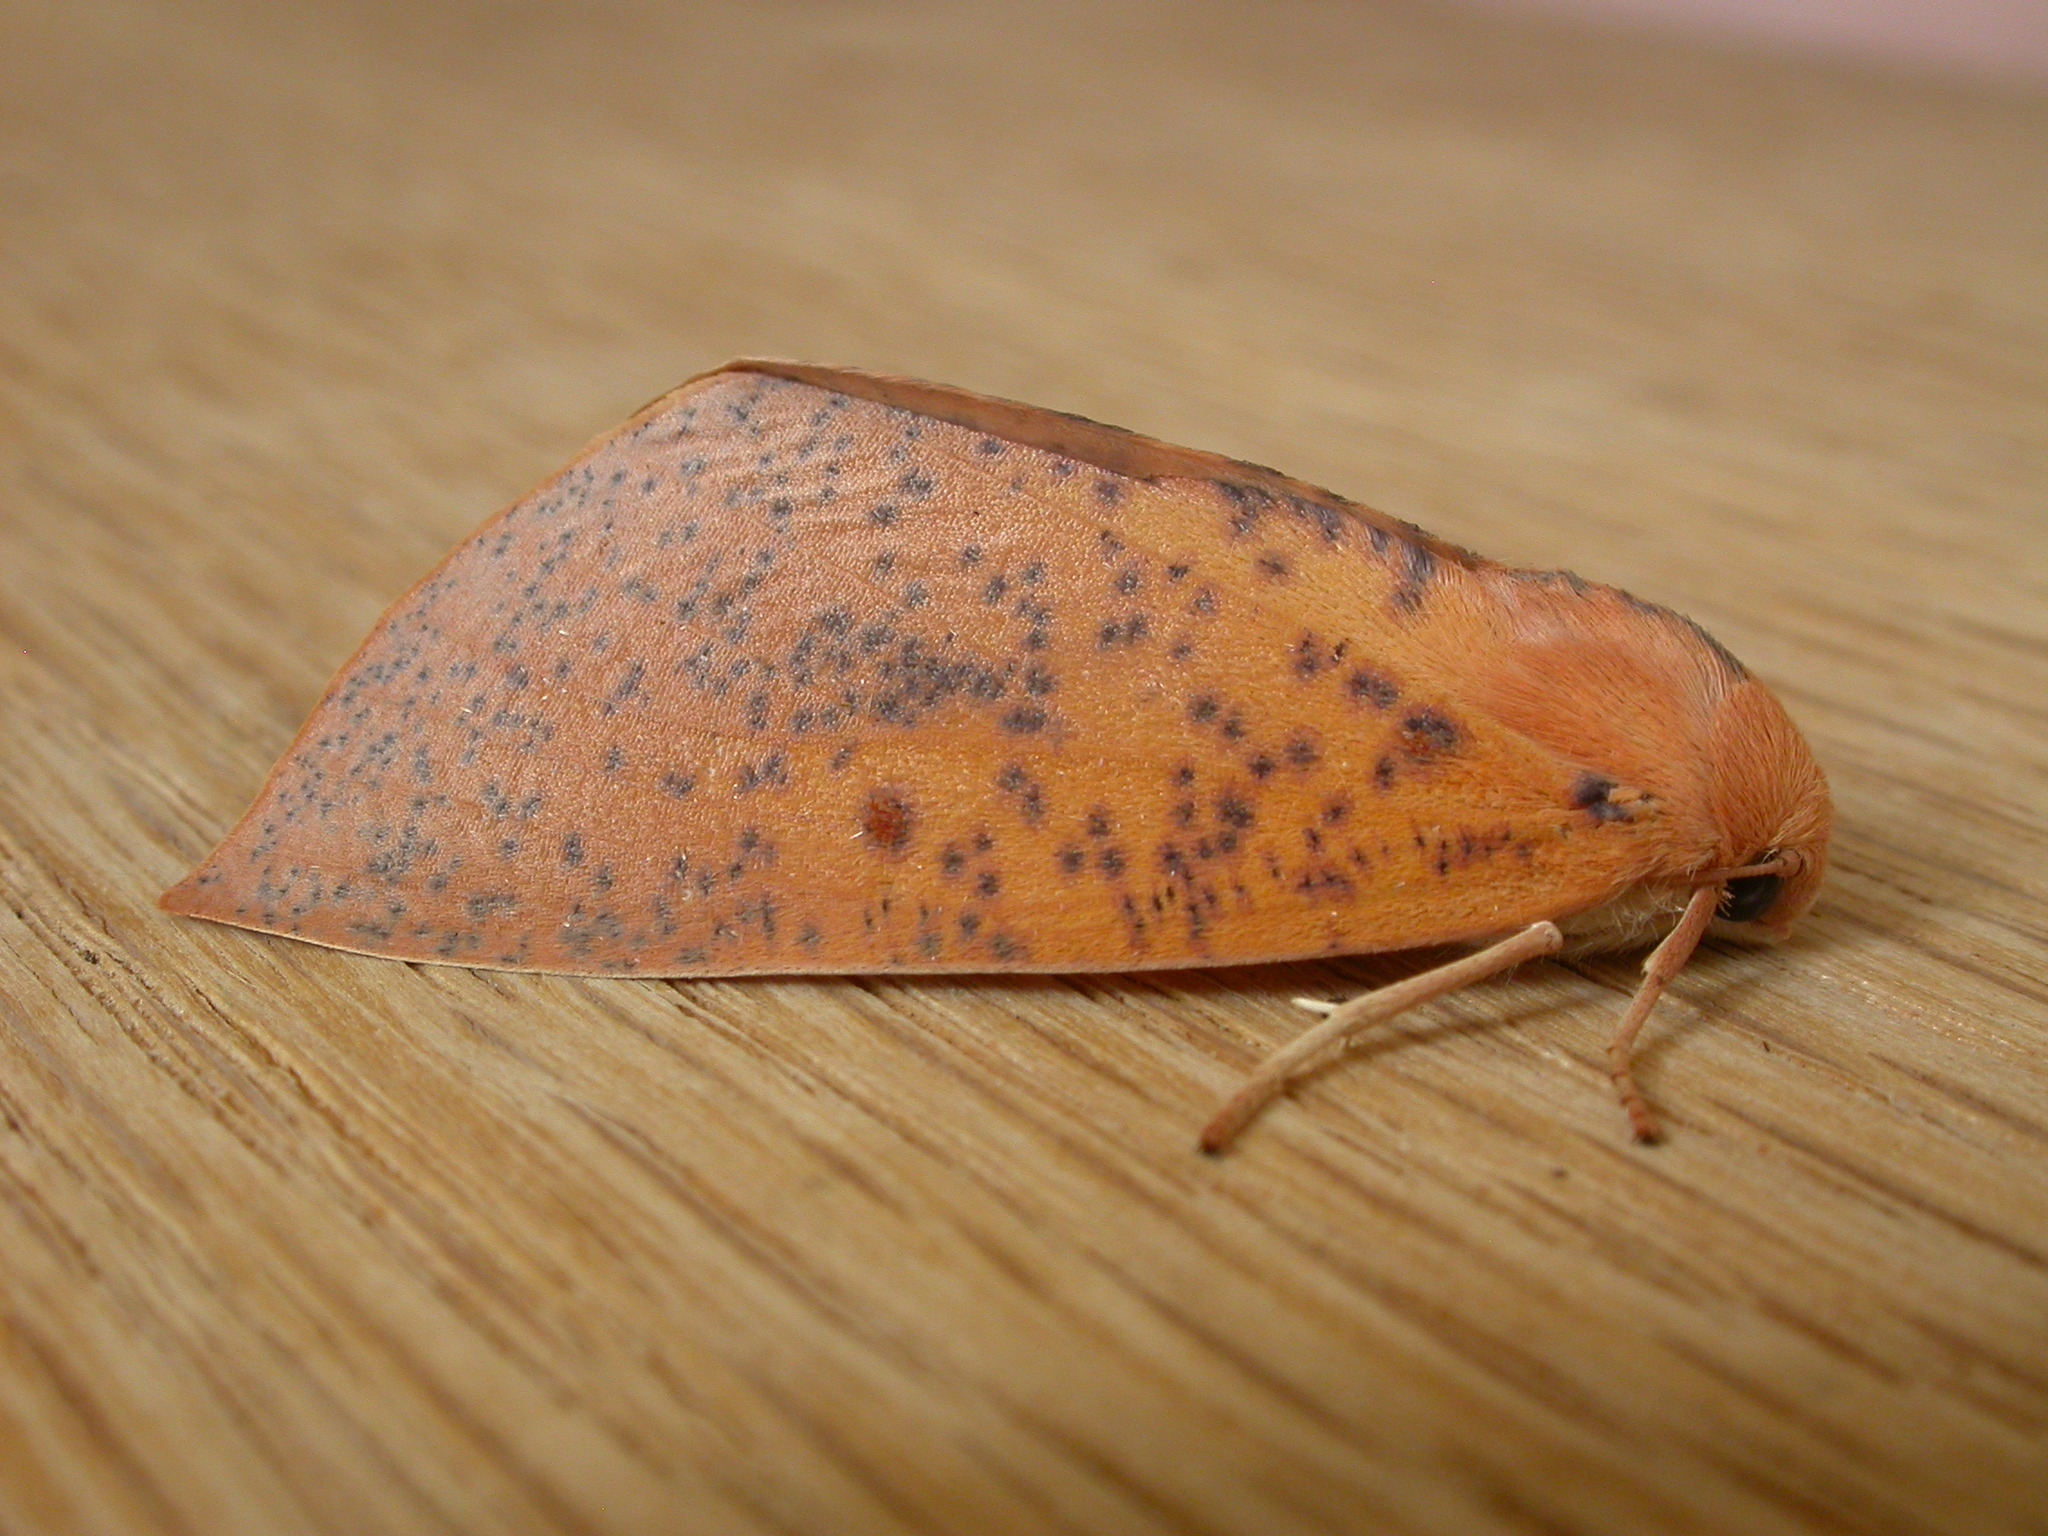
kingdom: Animalia
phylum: Arthropoda
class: Insecta
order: Lepidoptera
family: Geometridae
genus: Plesanemma
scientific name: Plesanemma fucata
